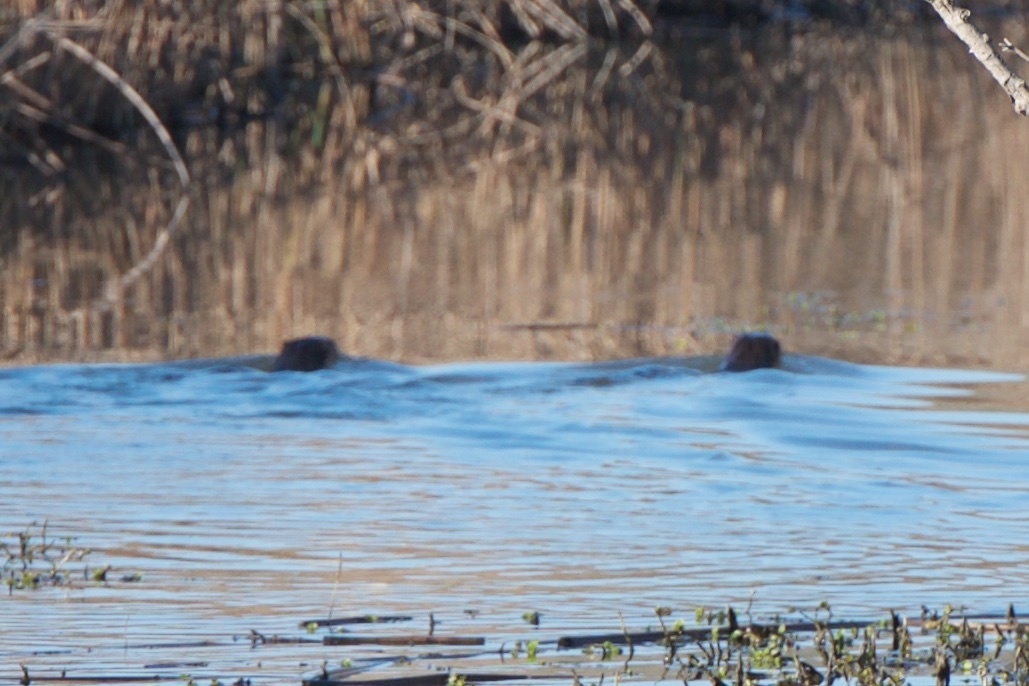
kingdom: Animalia
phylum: Chordata
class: Mammalia
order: Carnivora
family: Mustelidae
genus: Lontra
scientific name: Lontra canadensis
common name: North american river otter
